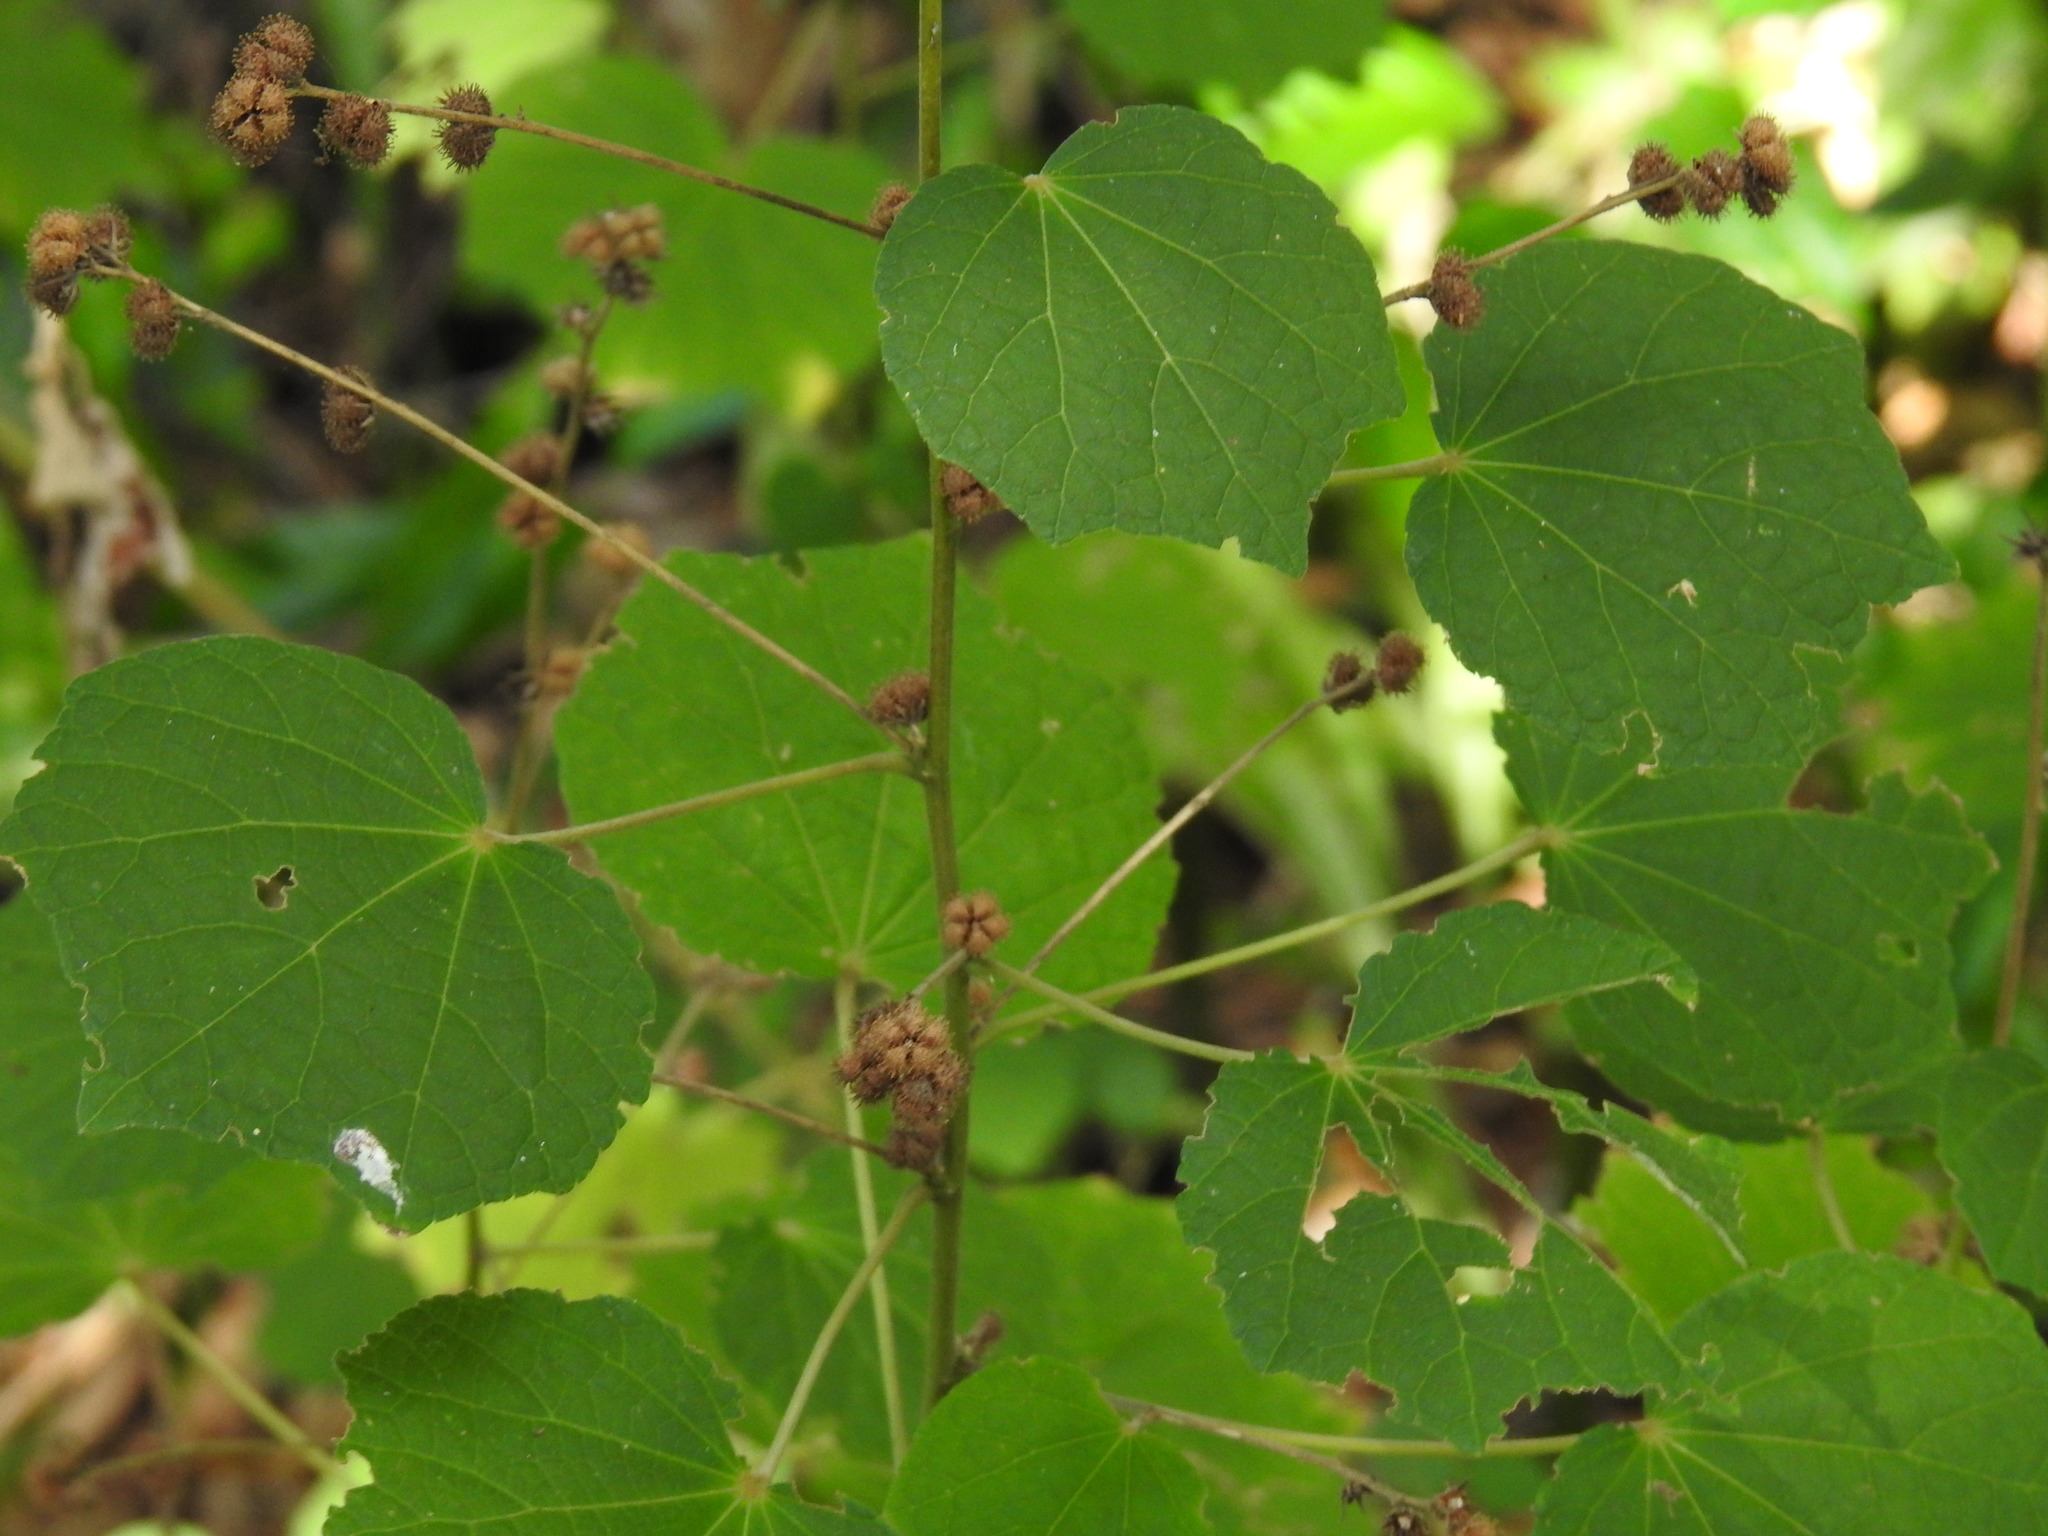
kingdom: Plantae
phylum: Tracheophyta
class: Magnoliopsida
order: Malvales
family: Malvaceae
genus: Urena
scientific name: Urena lobata
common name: Caesarweed
